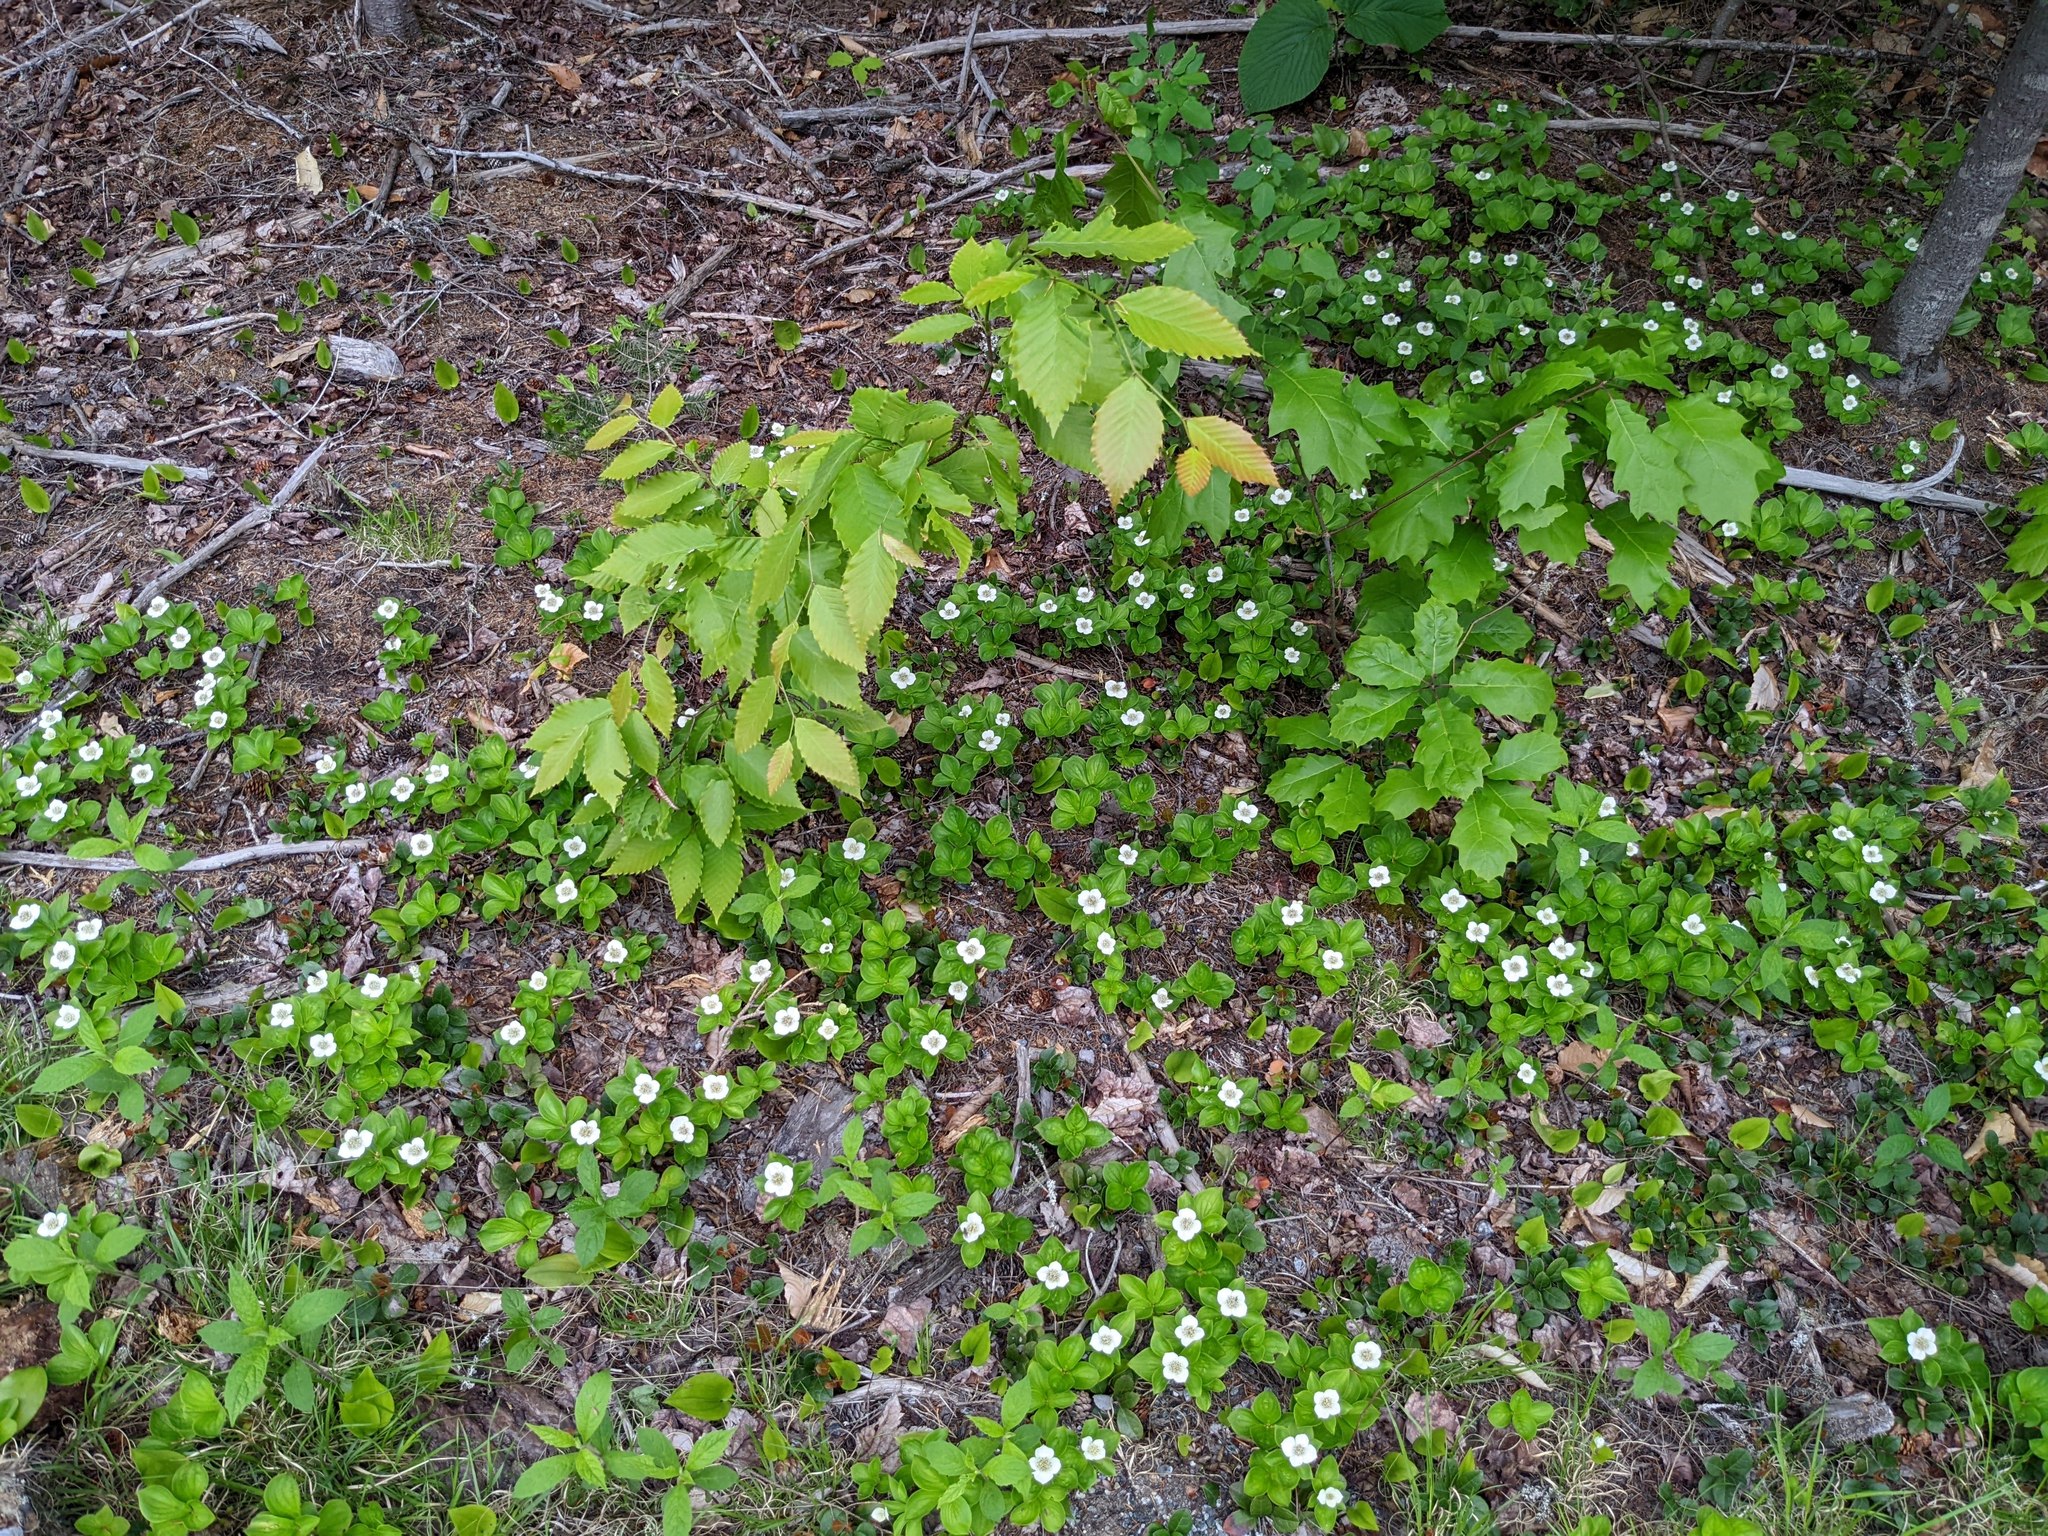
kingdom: Plantae
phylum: Tracheophyta
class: Magnoliopsida
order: Fagales
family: Fagaceae
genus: Fagus
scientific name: Fagus grandifolia
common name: American beech
